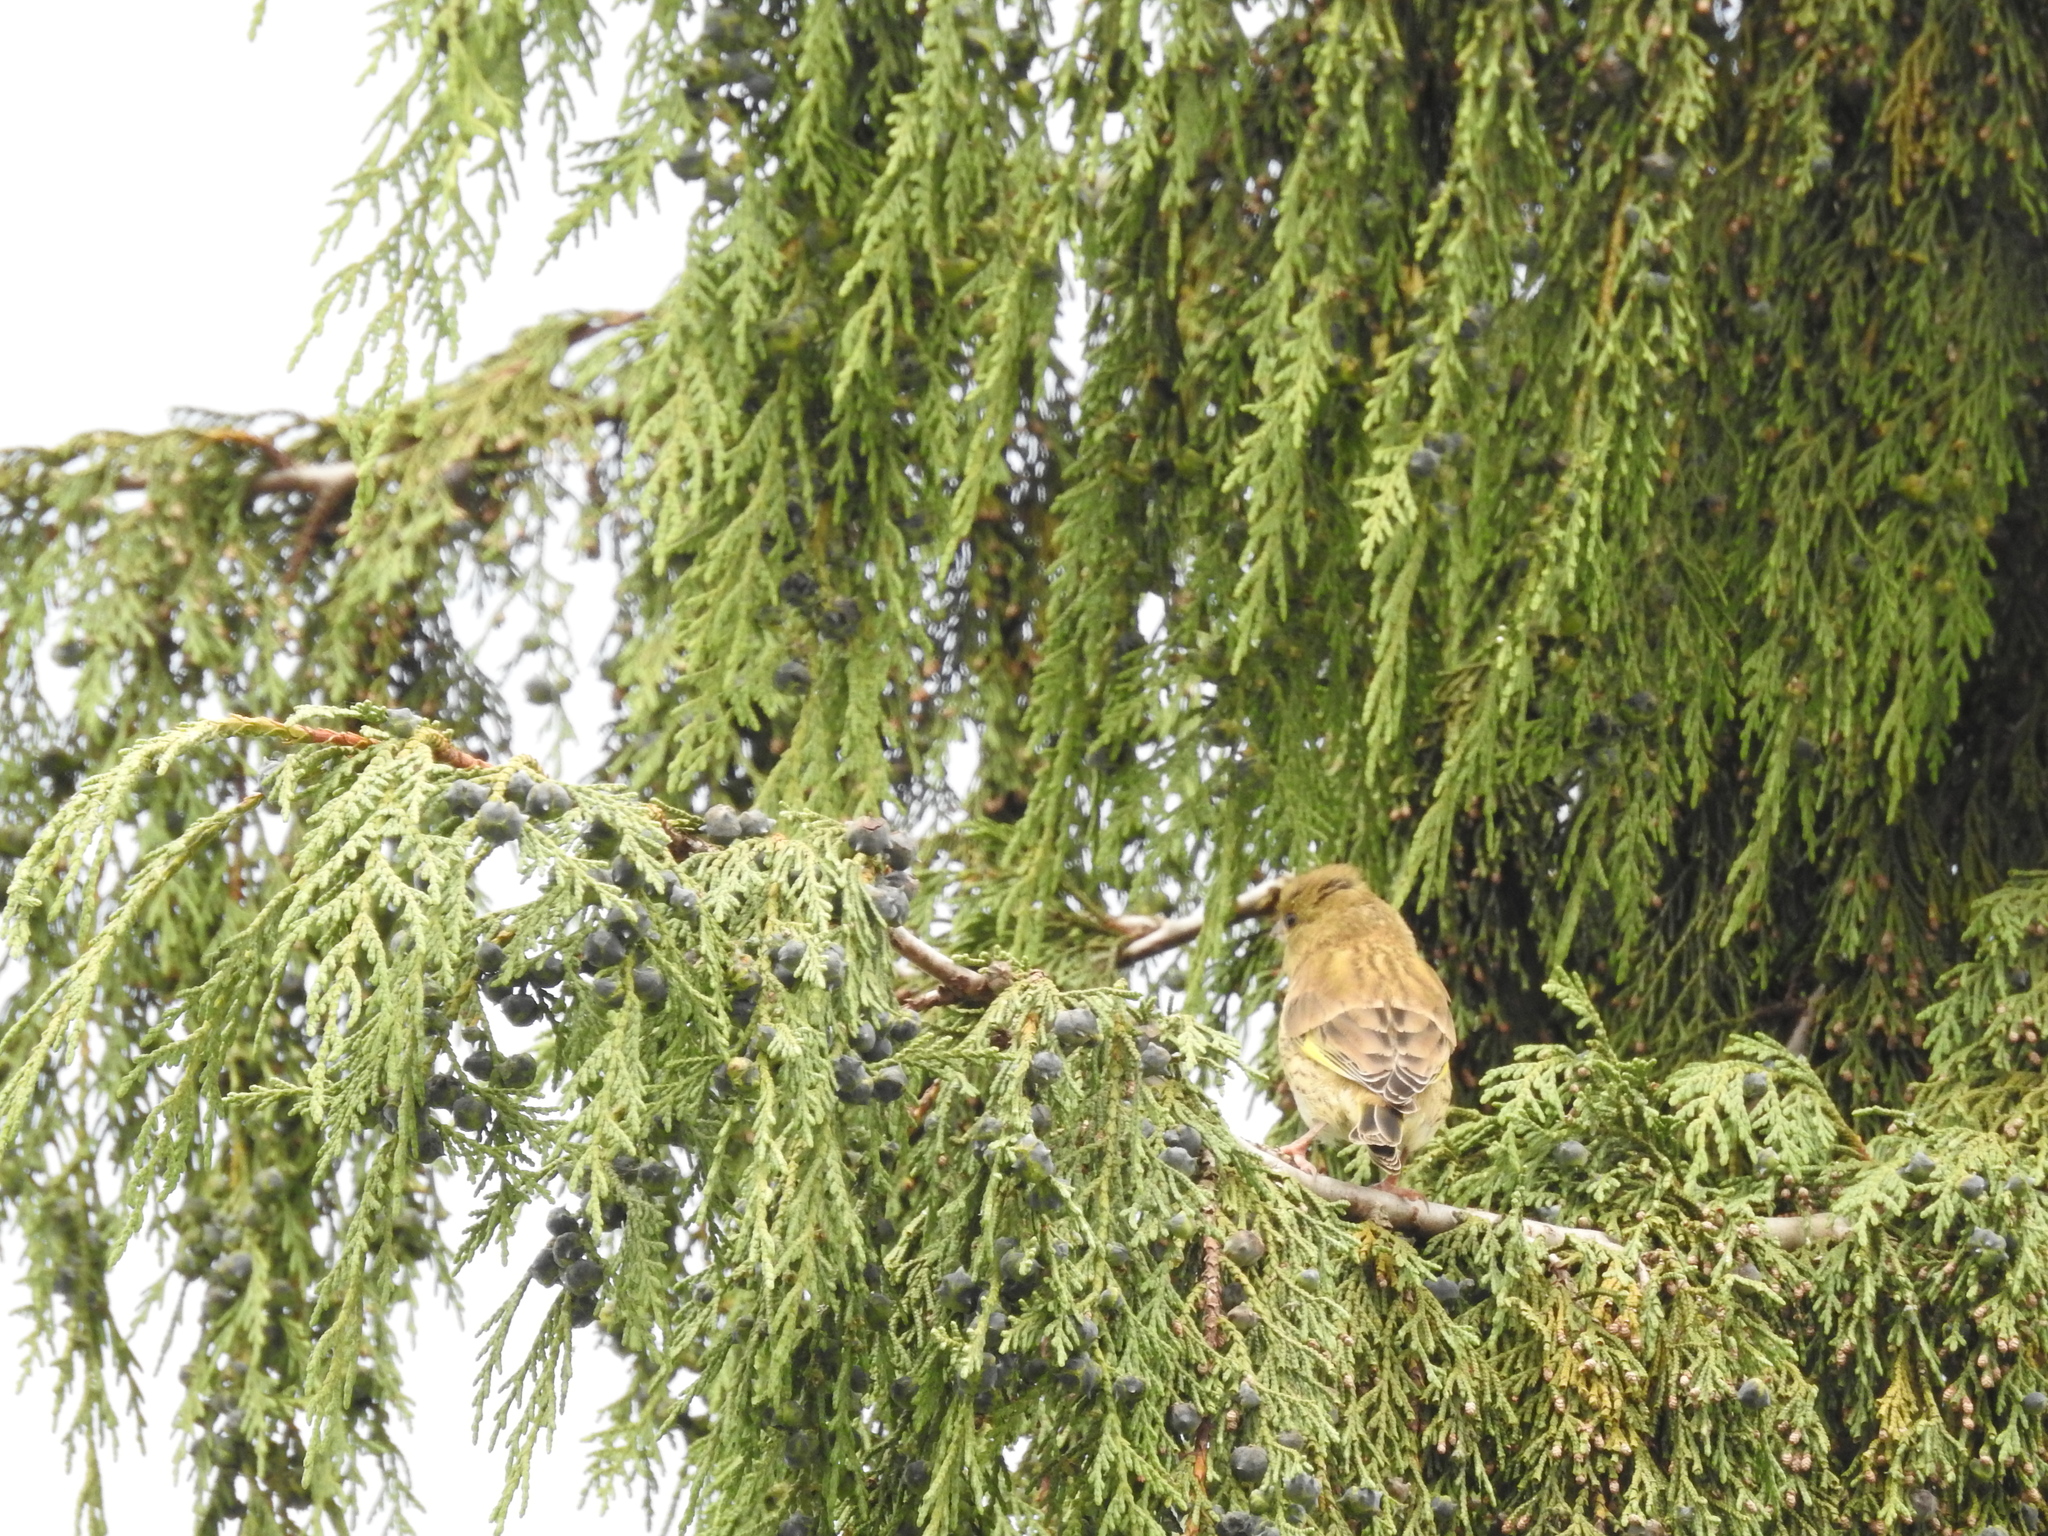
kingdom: Plantae
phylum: Tracheophyta
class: Liliopsida
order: Poales
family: Poaceae
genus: Chloris
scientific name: Chloris chloris
